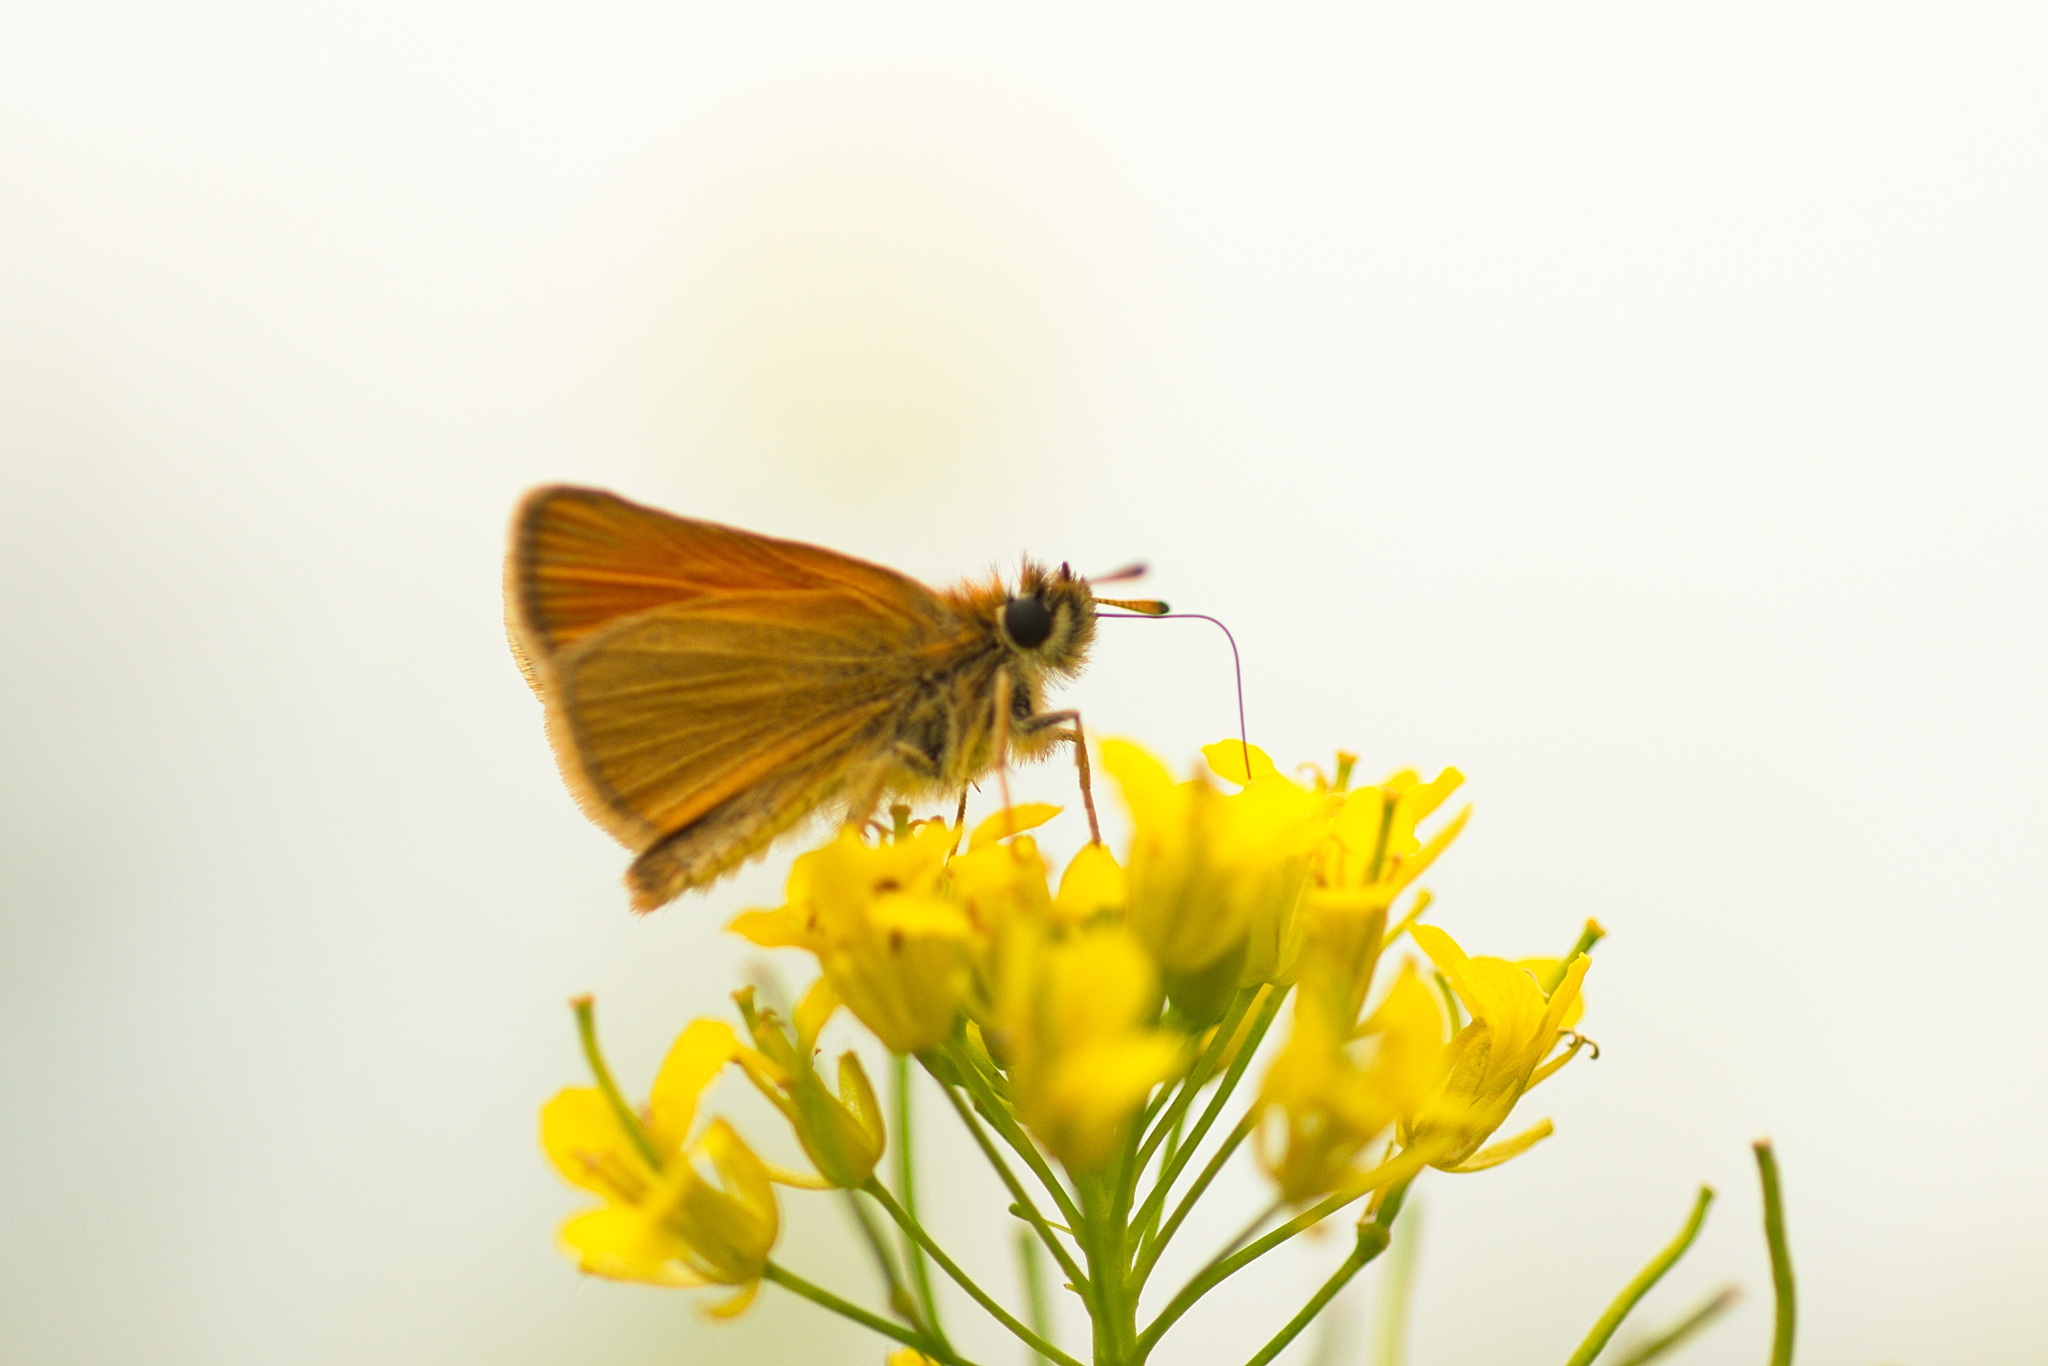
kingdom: Animalia
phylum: Arthropoda
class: Insecta
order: Lepidoptera
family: Hesperiidae
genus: Thymelicus
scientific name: Thymelicus lineola
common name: Essex skipper
